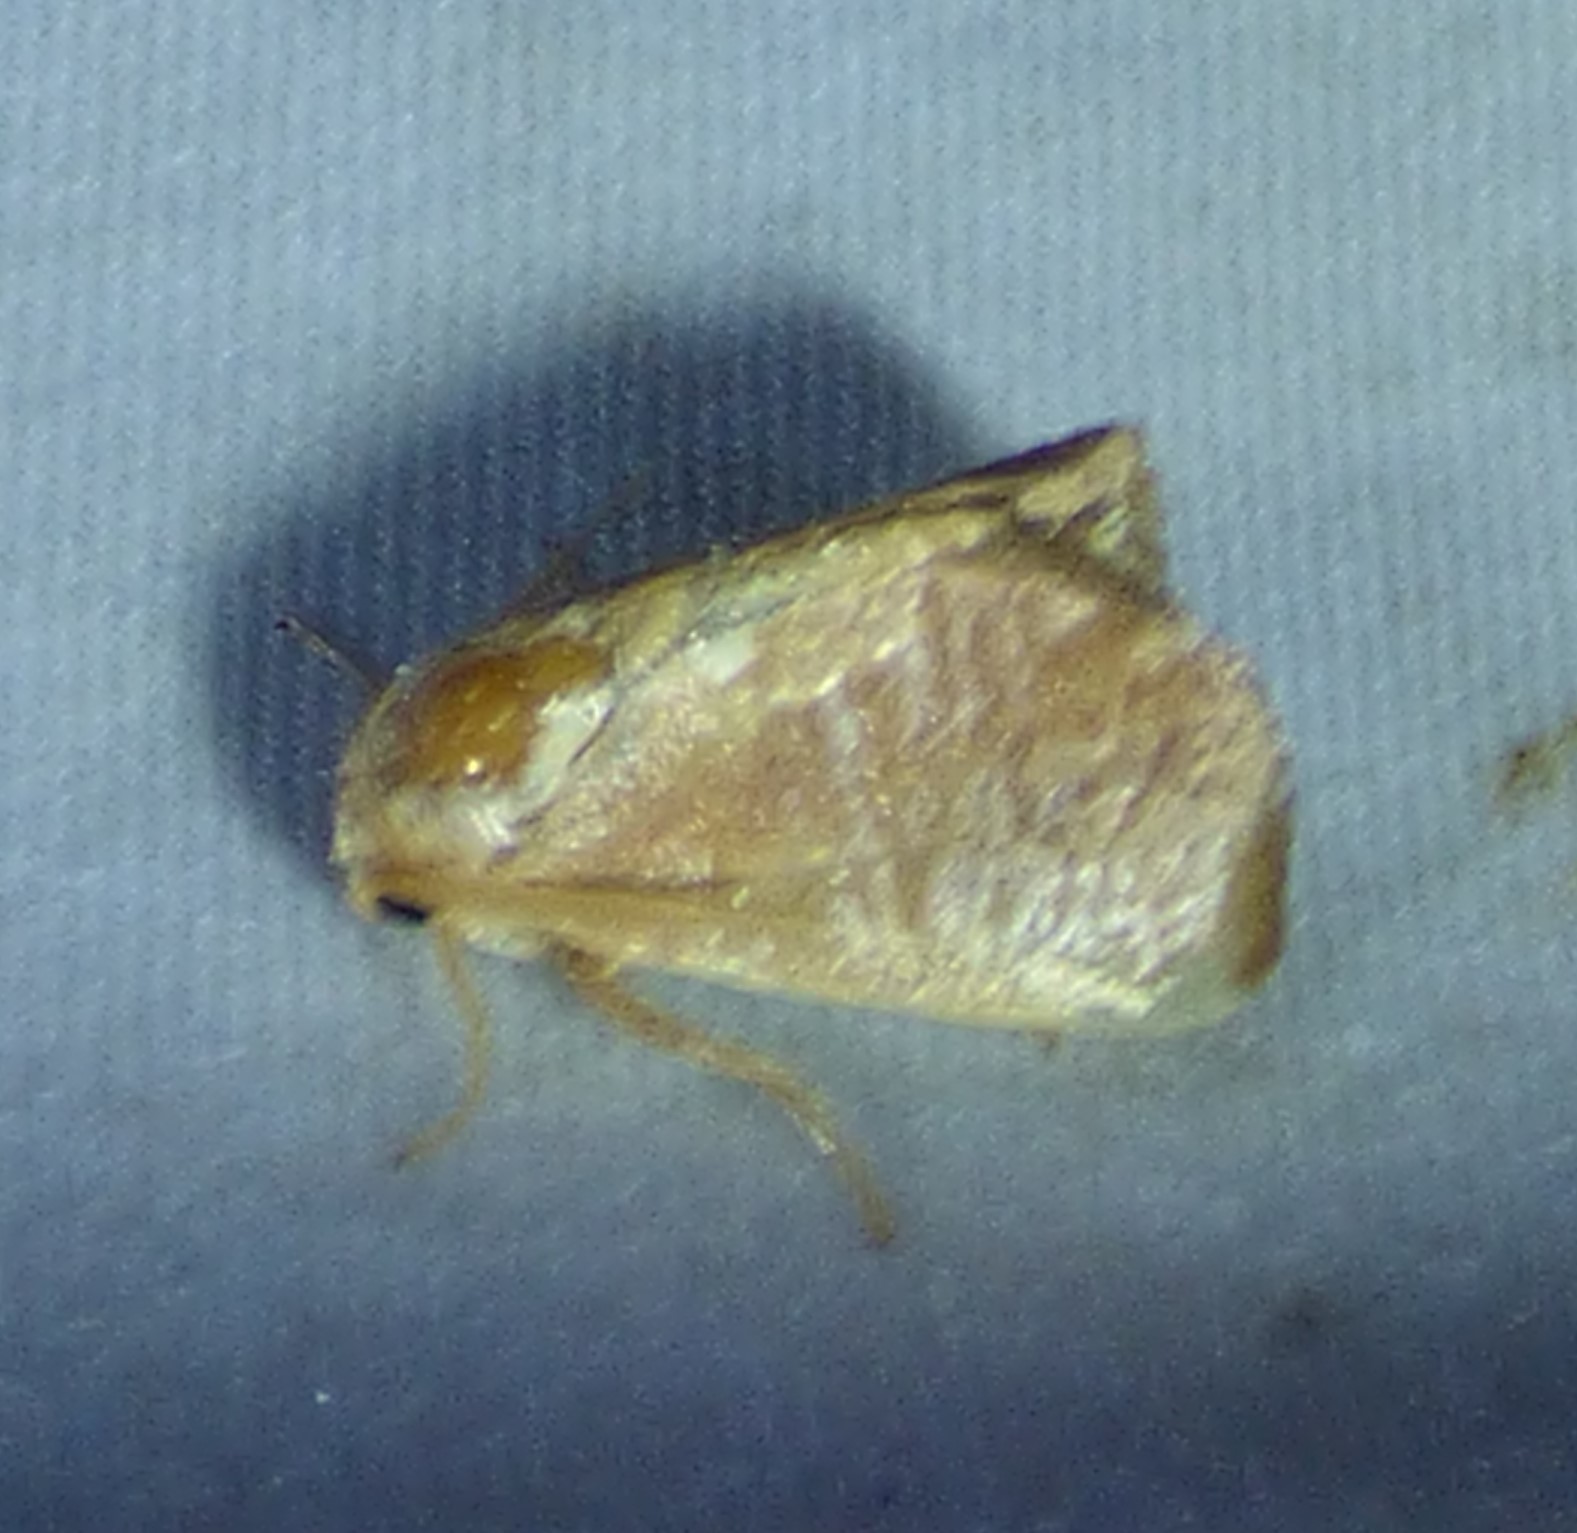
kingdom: Animalia
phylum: Arthropoda
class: Insecta
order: Lepidoptera
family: Limacodidae
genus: Isa
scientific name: Isa textula
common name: Crowned slug moth
